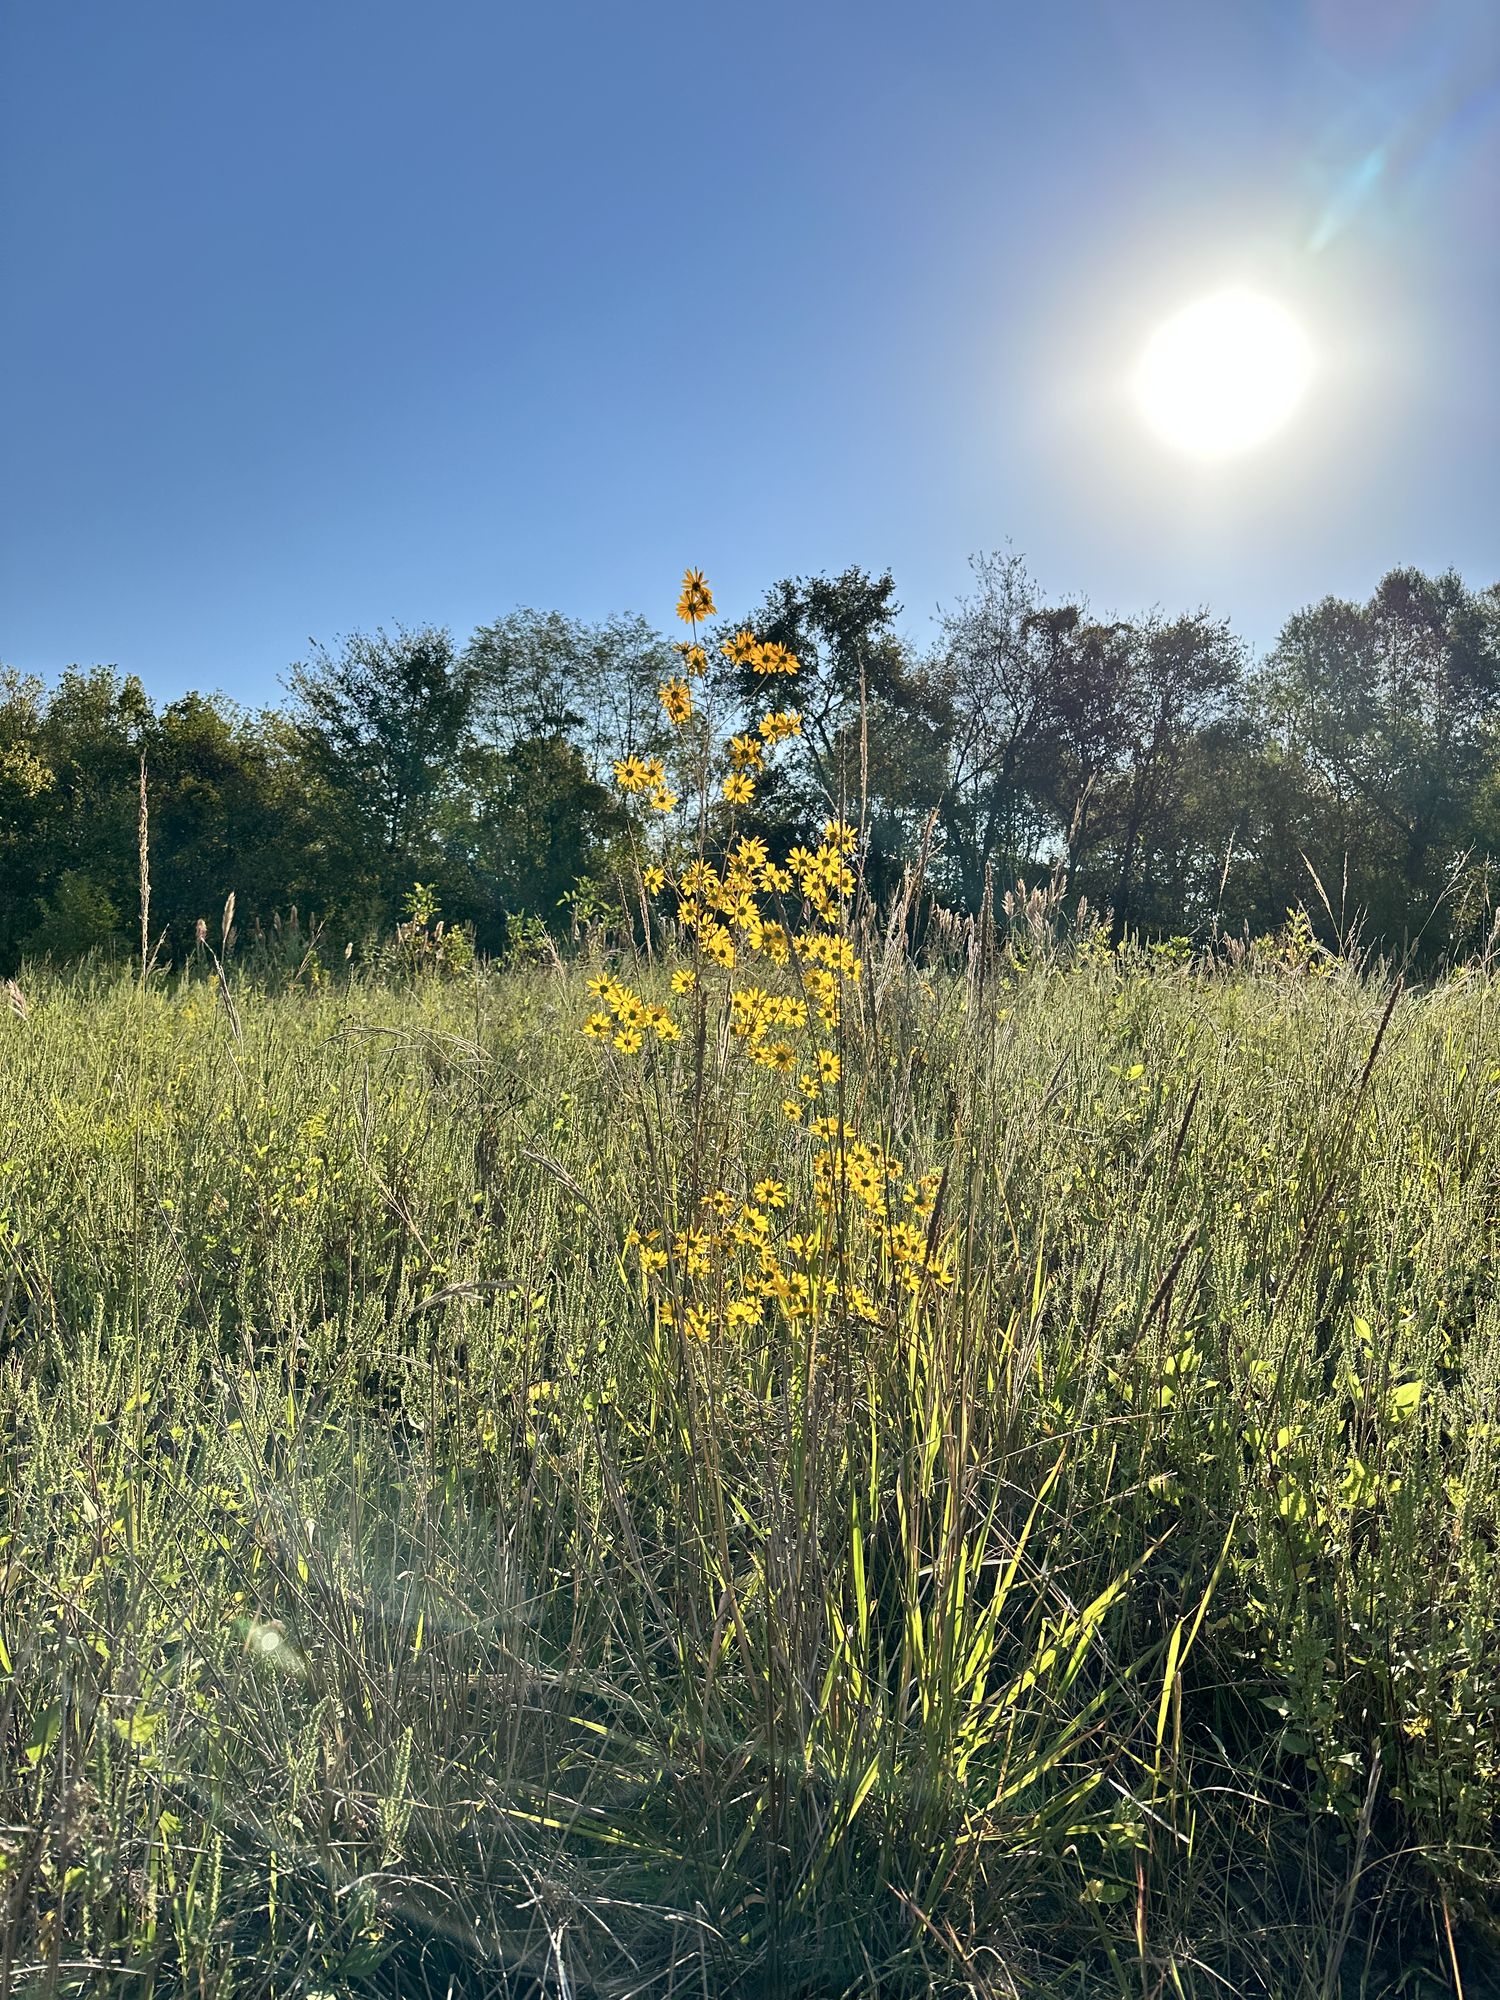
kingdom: Plantae
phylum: Tracheophyta
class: Magnoliopsida
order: Asterales
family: Asteraceae
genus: Helianthus
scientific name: Helianthus angustifolius
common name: Swamp sunflower
